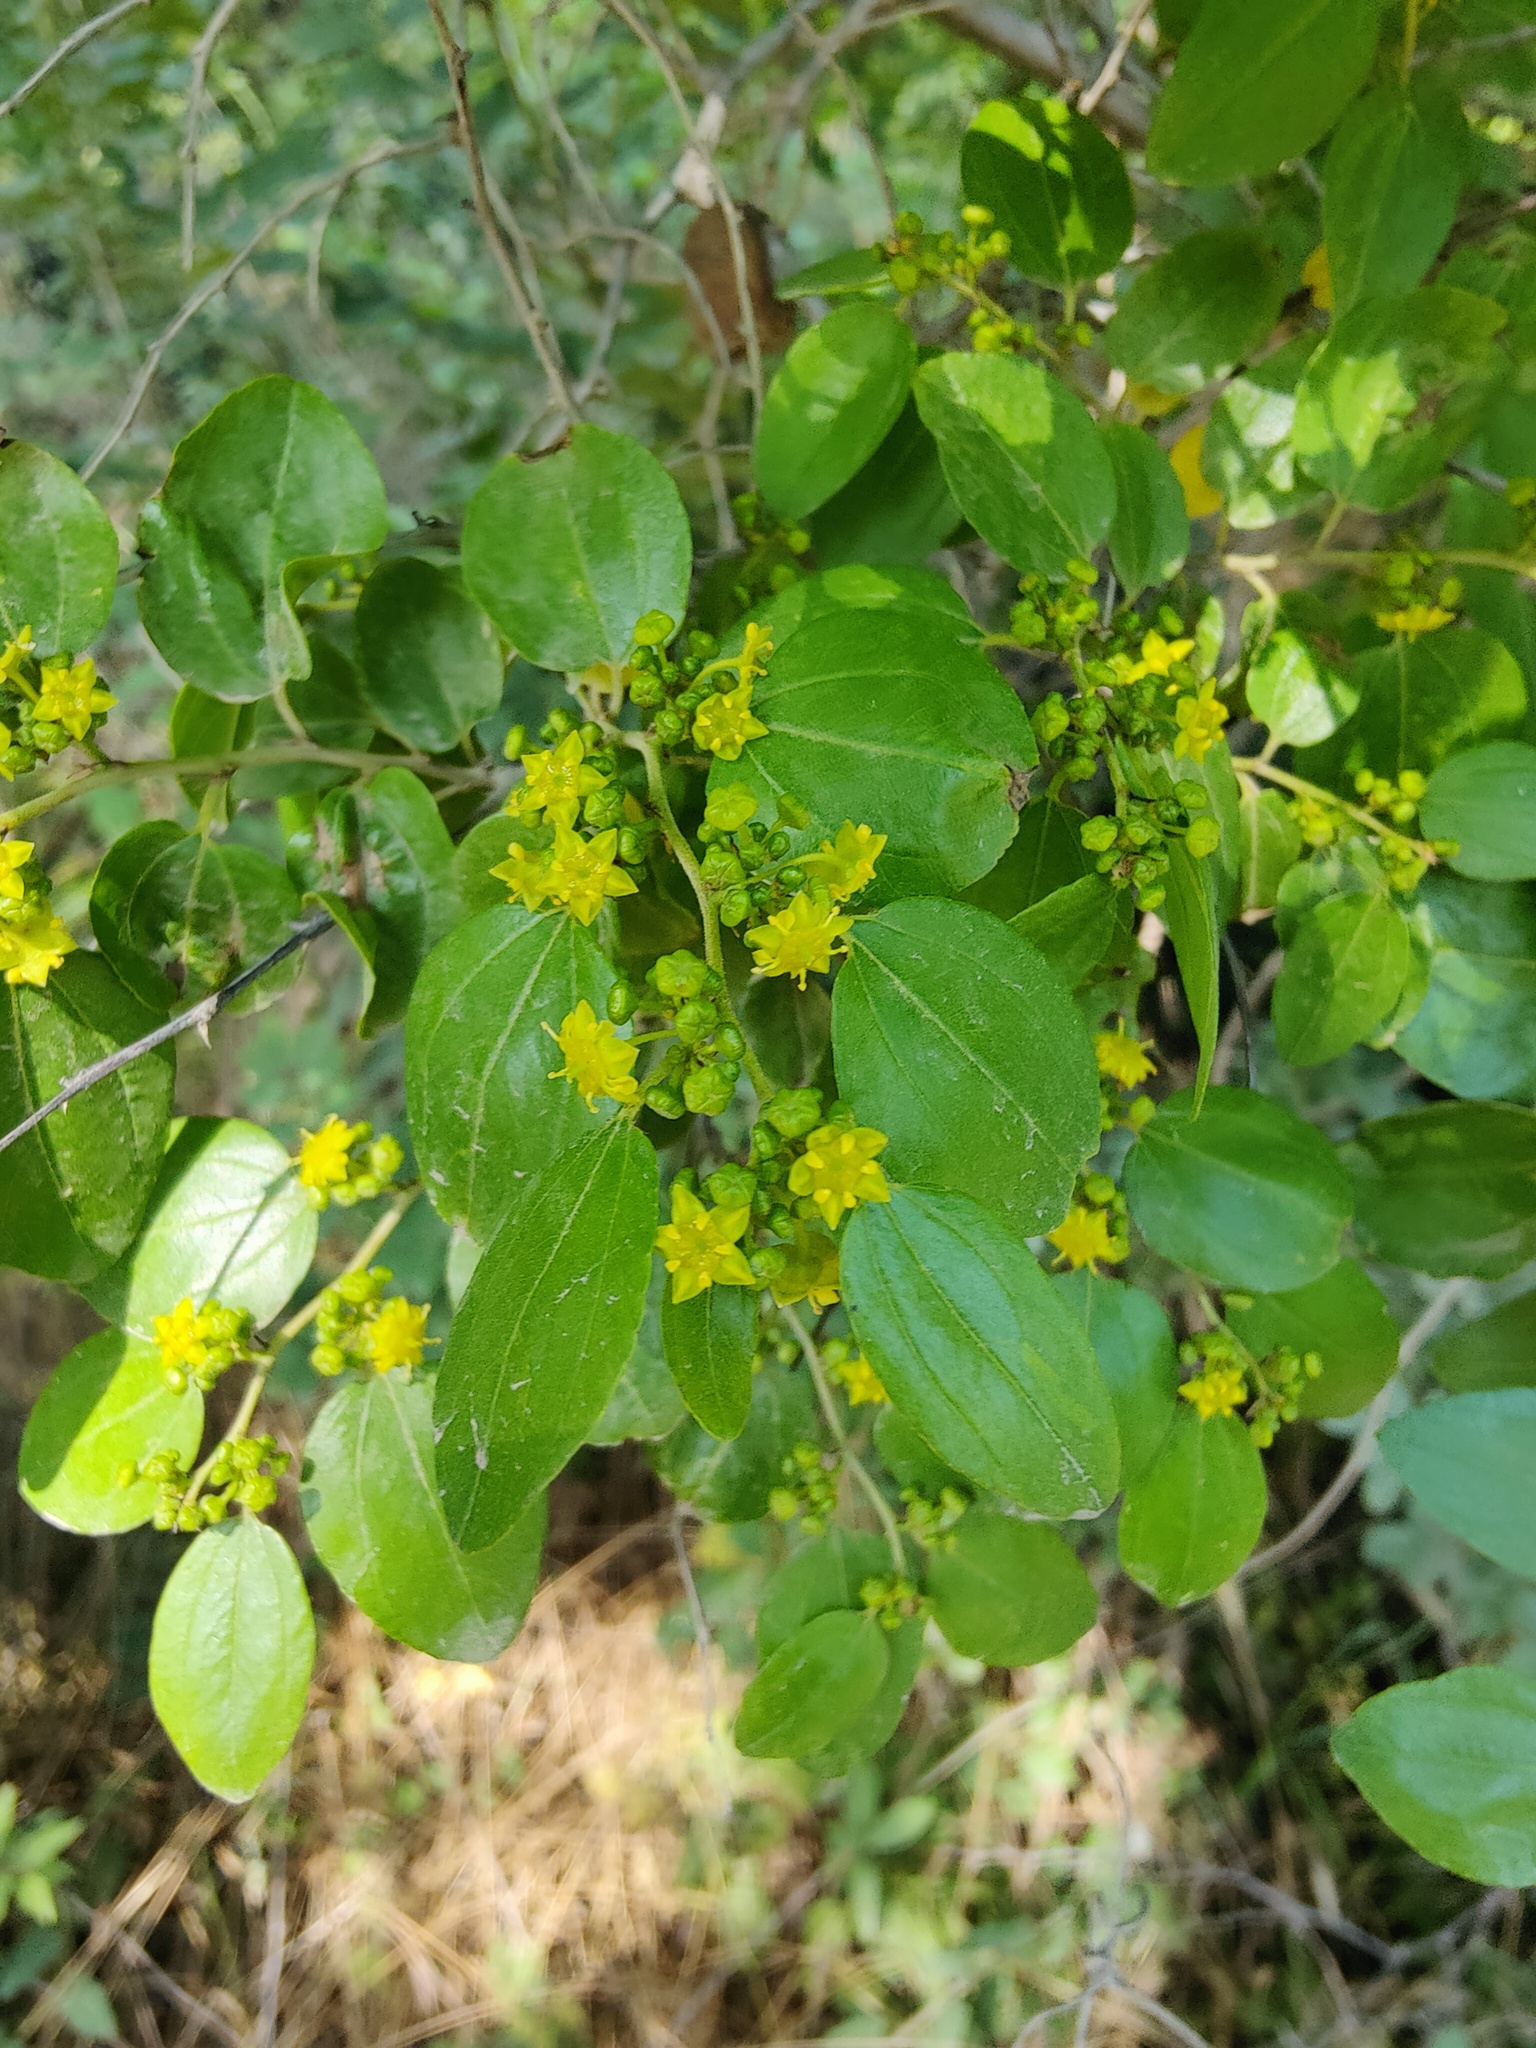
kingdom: Plantae
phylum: Tracheophyta
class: Magnoliopsida
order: Rosales
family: Rhamnaceae
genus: Paliurus
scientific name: Paliurus spina-christi
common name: Jeruselem thorn
